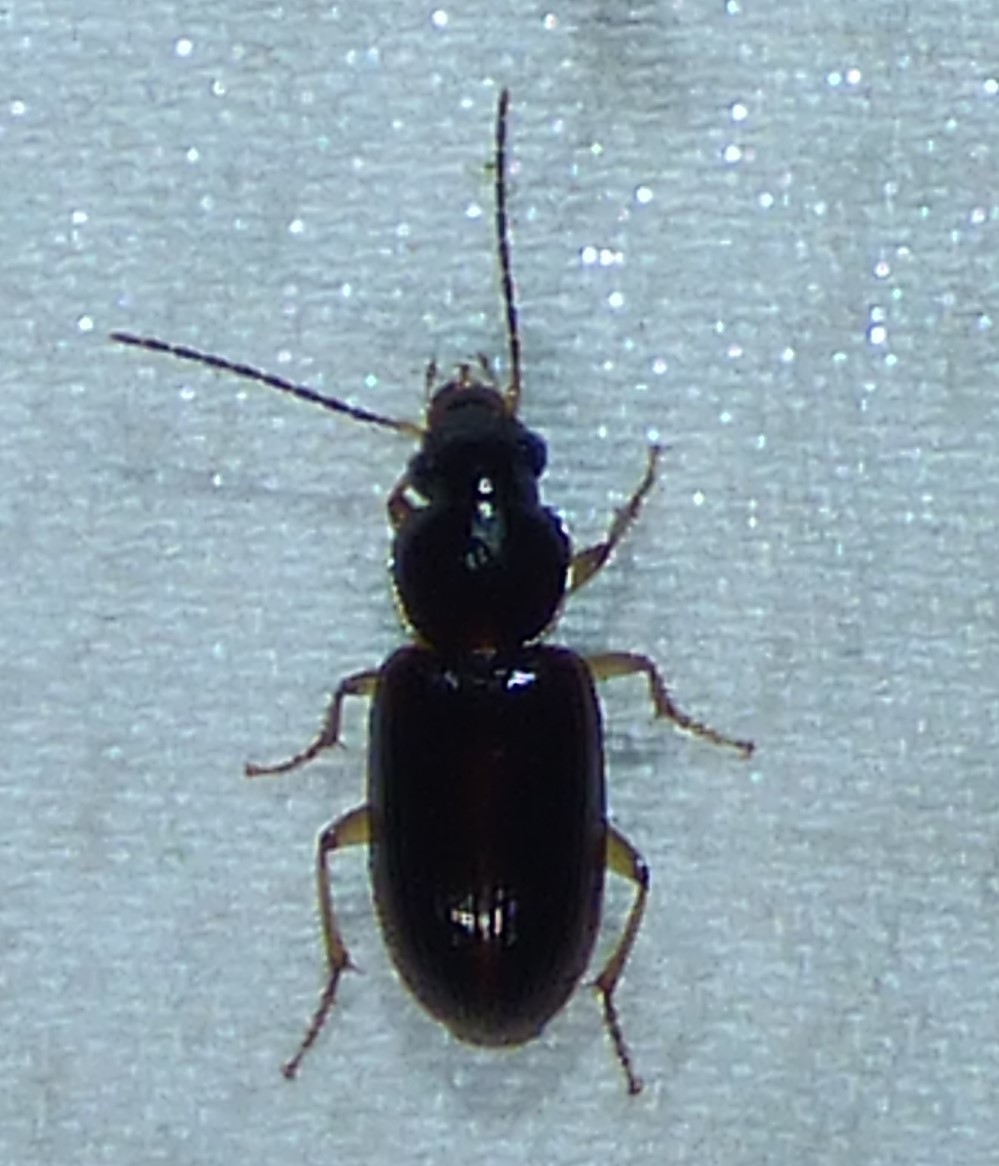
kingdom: Animalia
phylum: Arthropoda
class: Insecta
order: Coleoptera
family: Carabidae
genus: Stenolophus
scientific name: Stenolophus ochropezus
